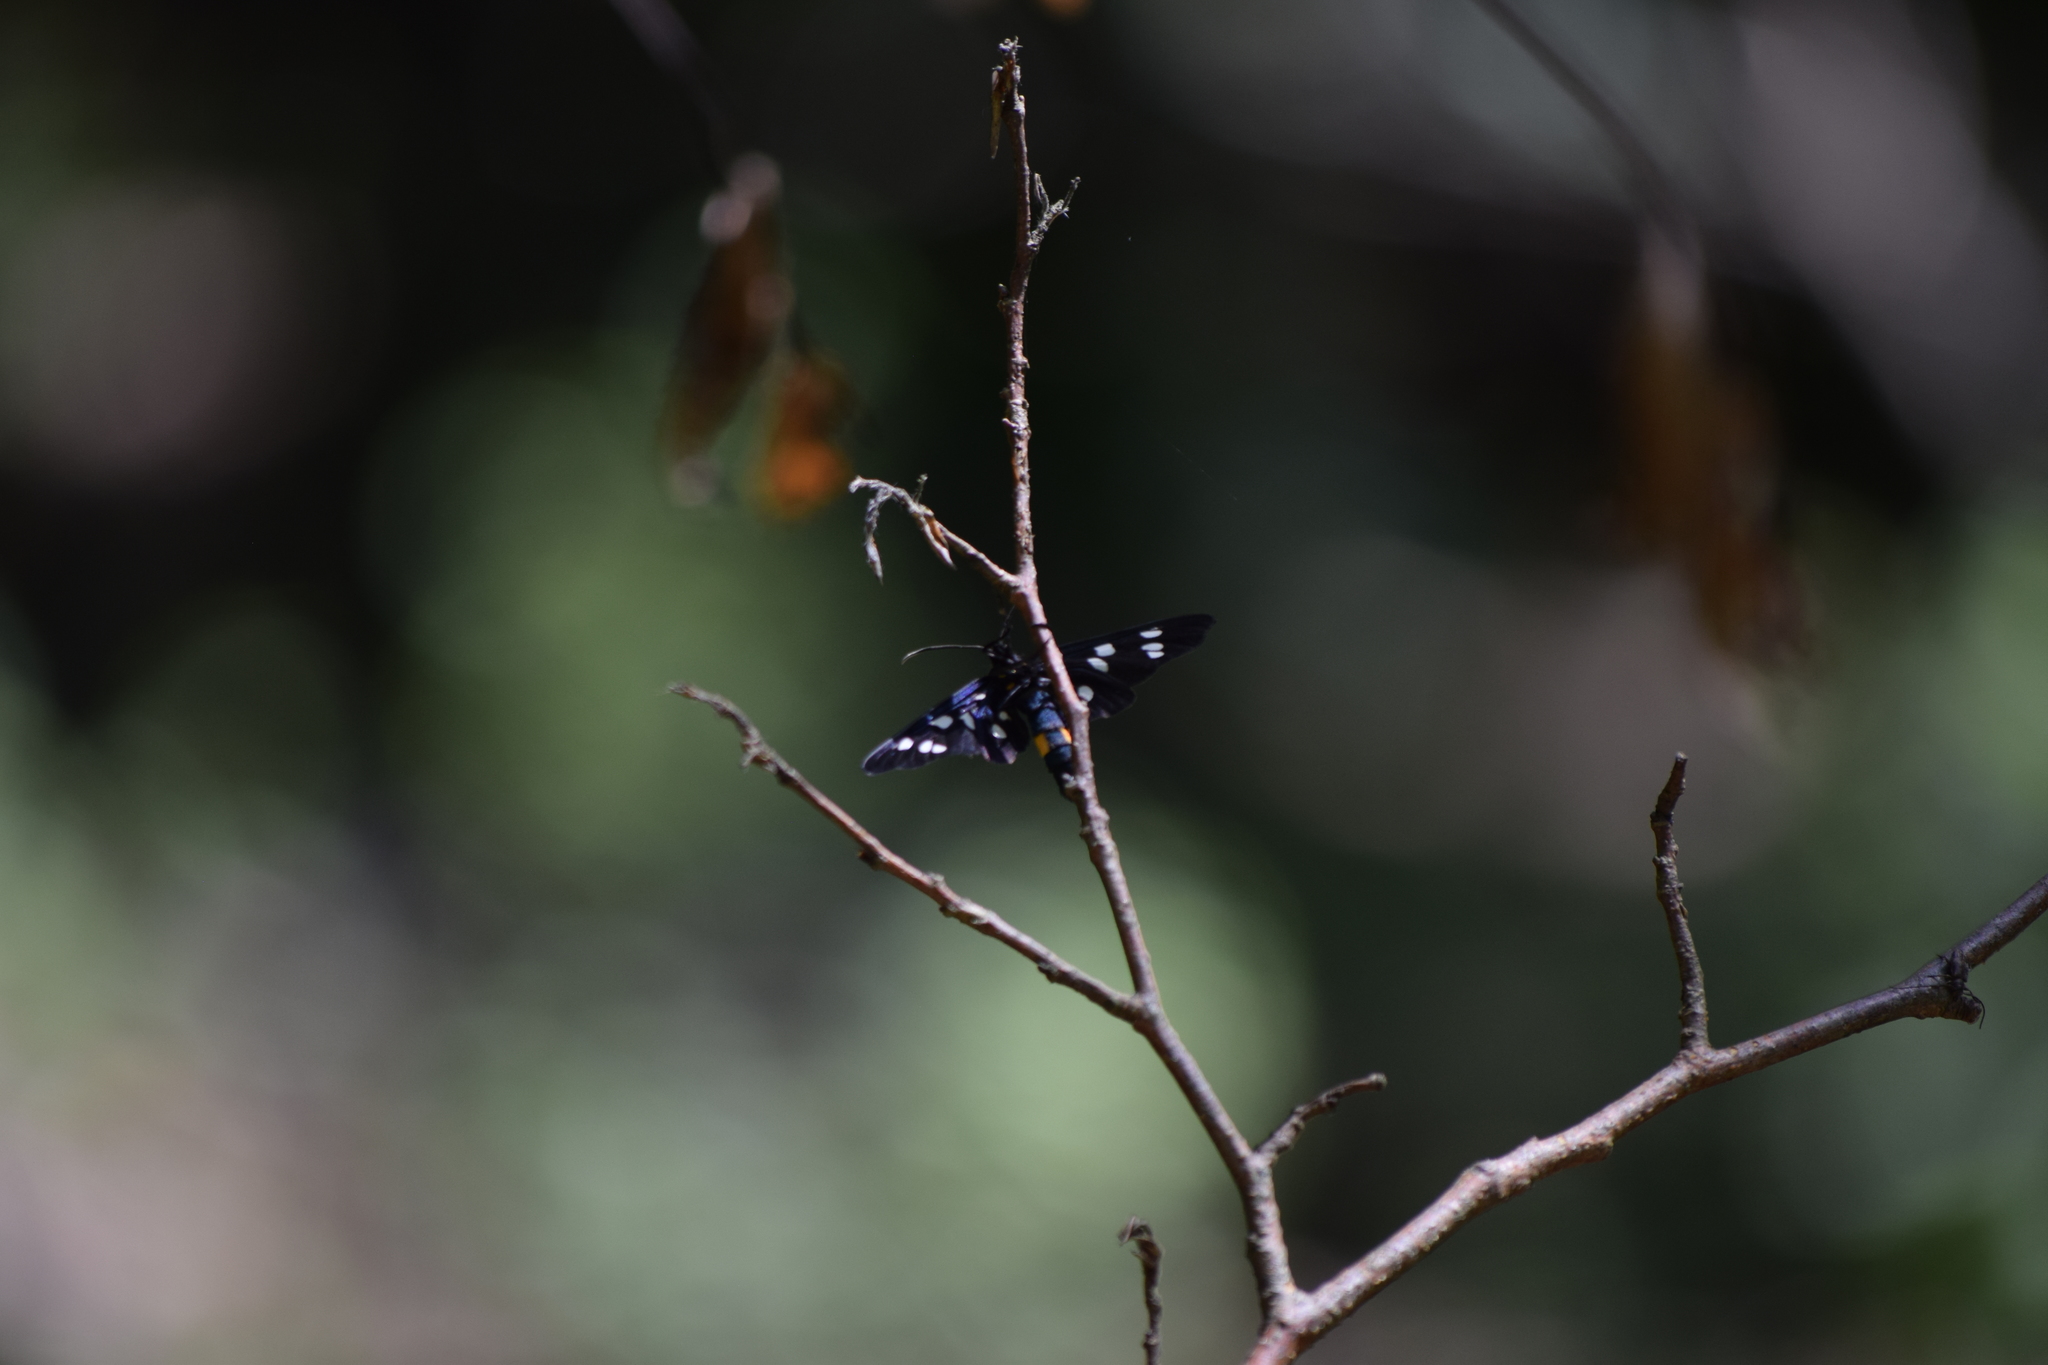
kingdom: Animalia
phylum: Arthropoda
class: Insecta
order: Lepidoptera
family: Erebidae
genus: Amata
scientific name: Amata phegea
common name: Nine-spotted
